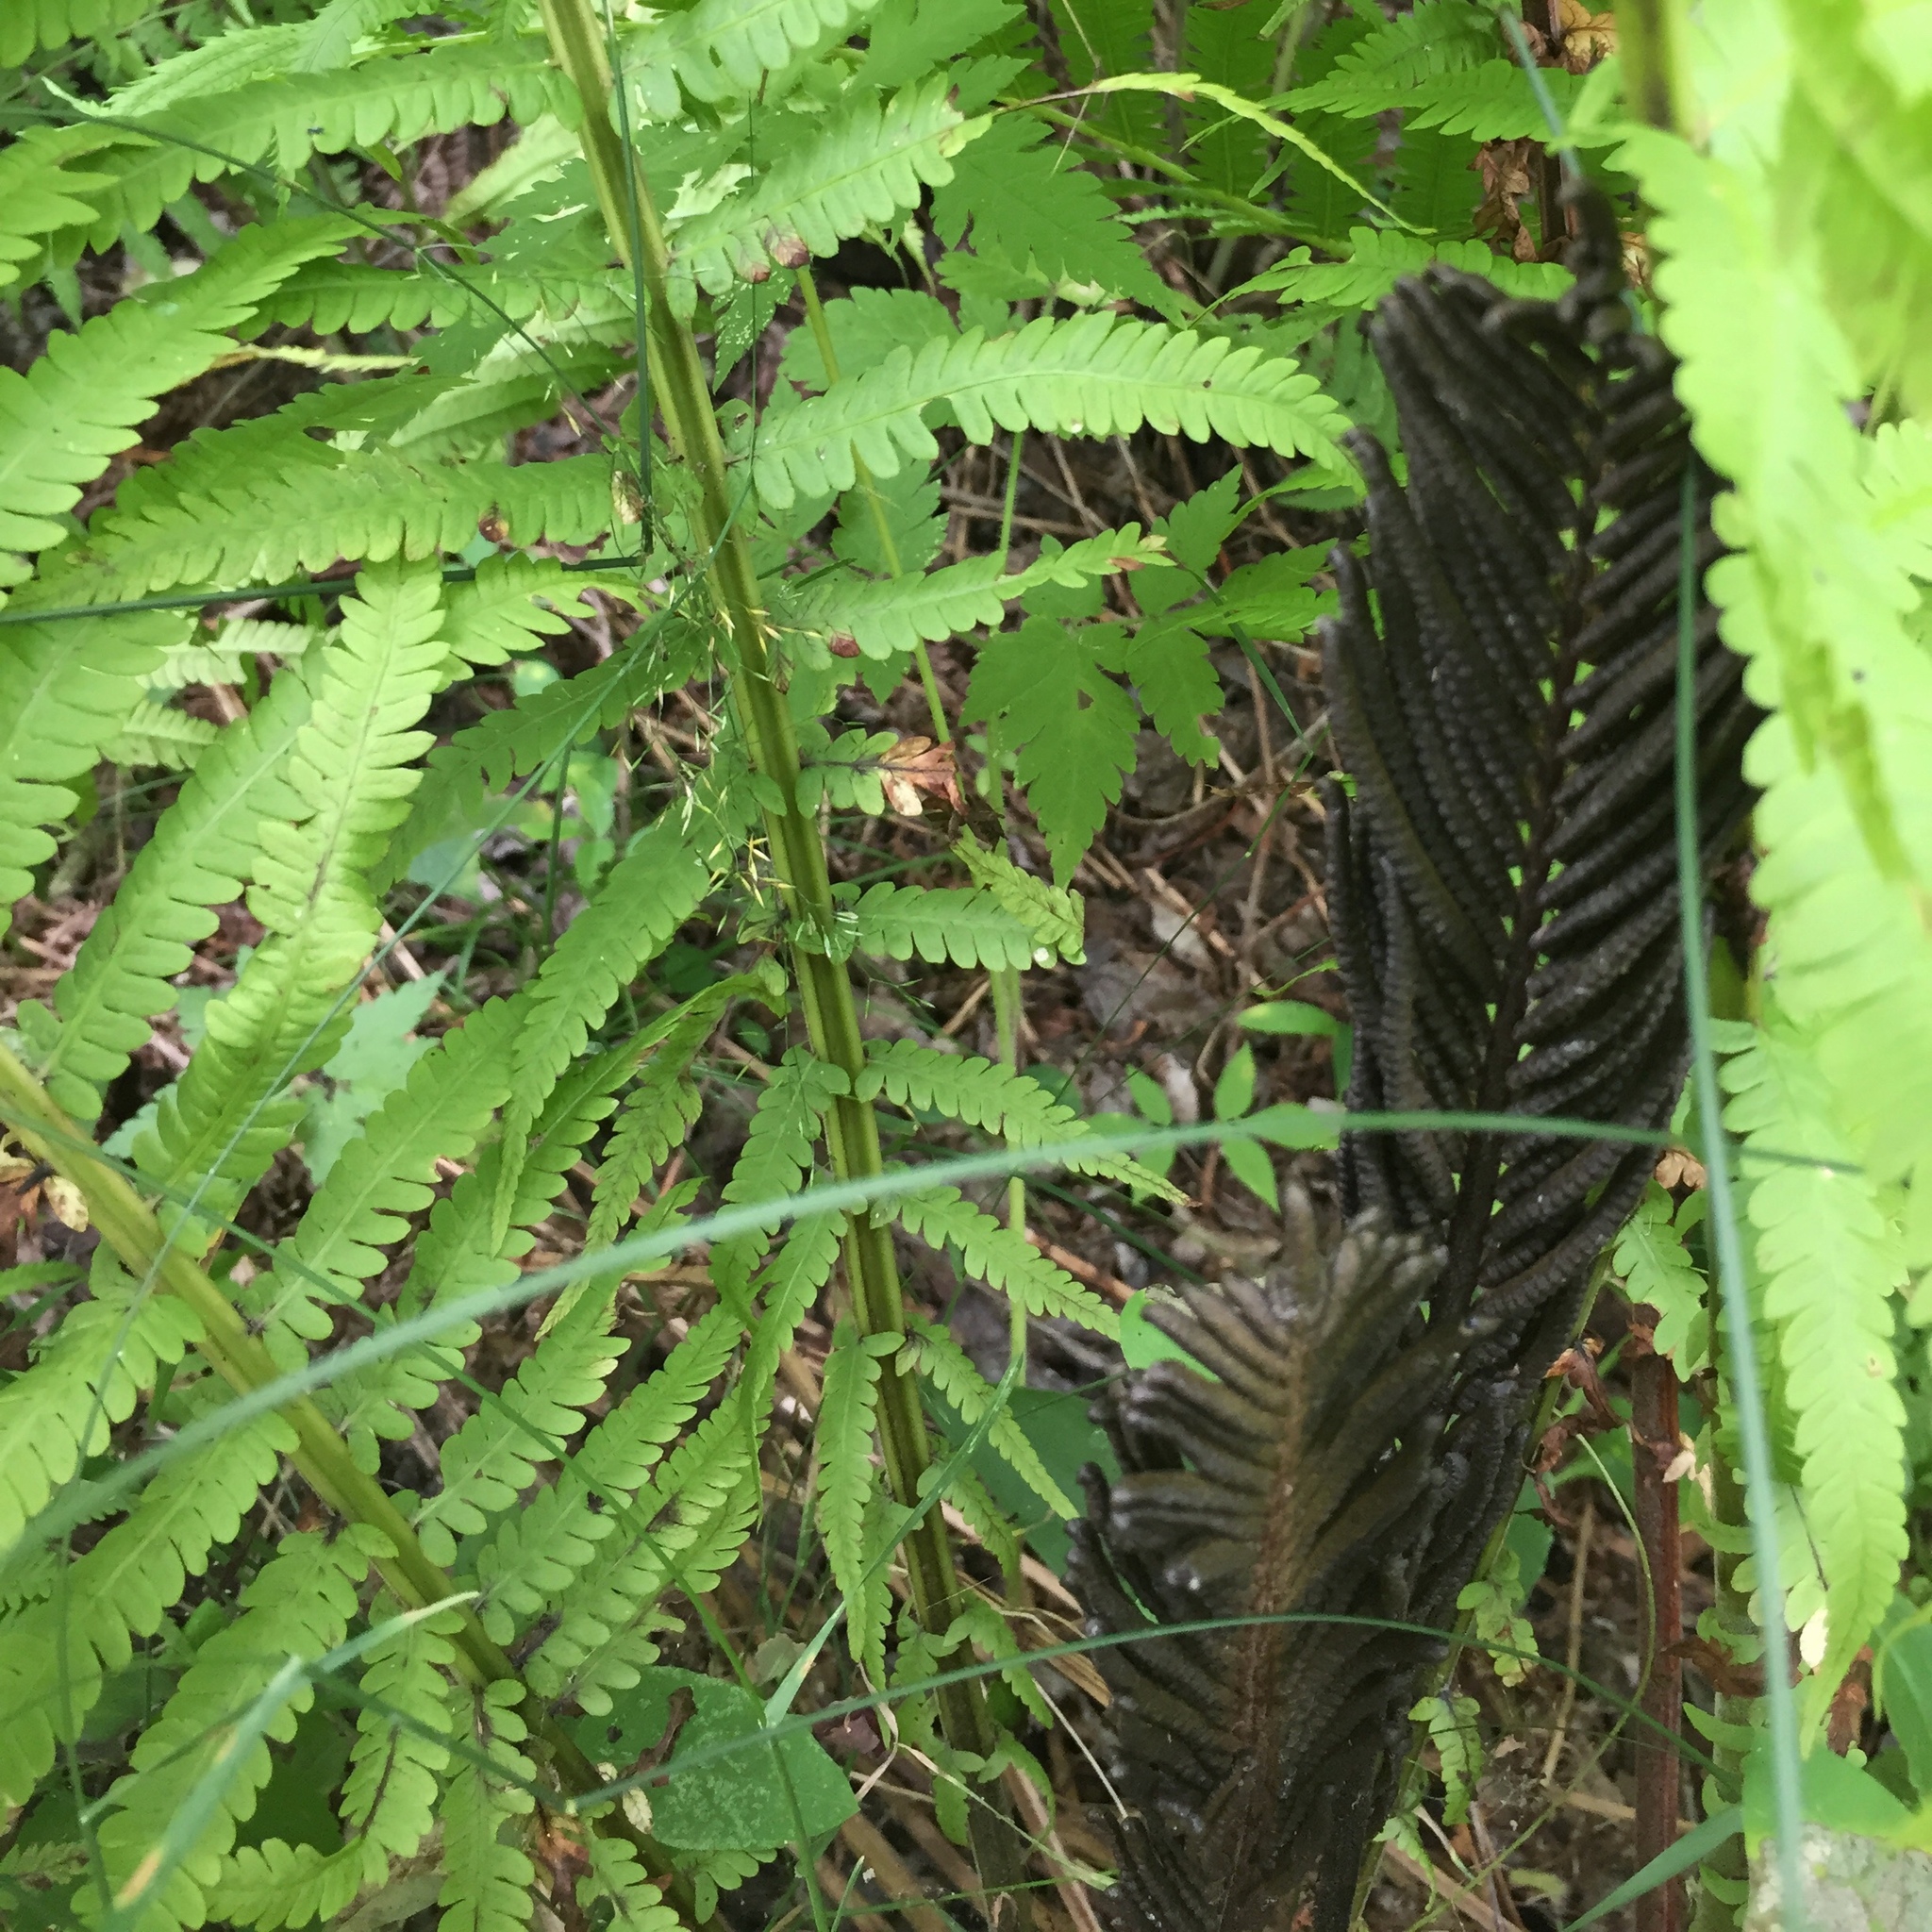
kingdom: Plantae
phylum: Tracheophyta
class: Polypodiopsida
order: Polypodiales
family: Onocleaceae
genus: Matteuccia
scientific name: Matteuccia struthiopteris
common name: Ostrich fern
